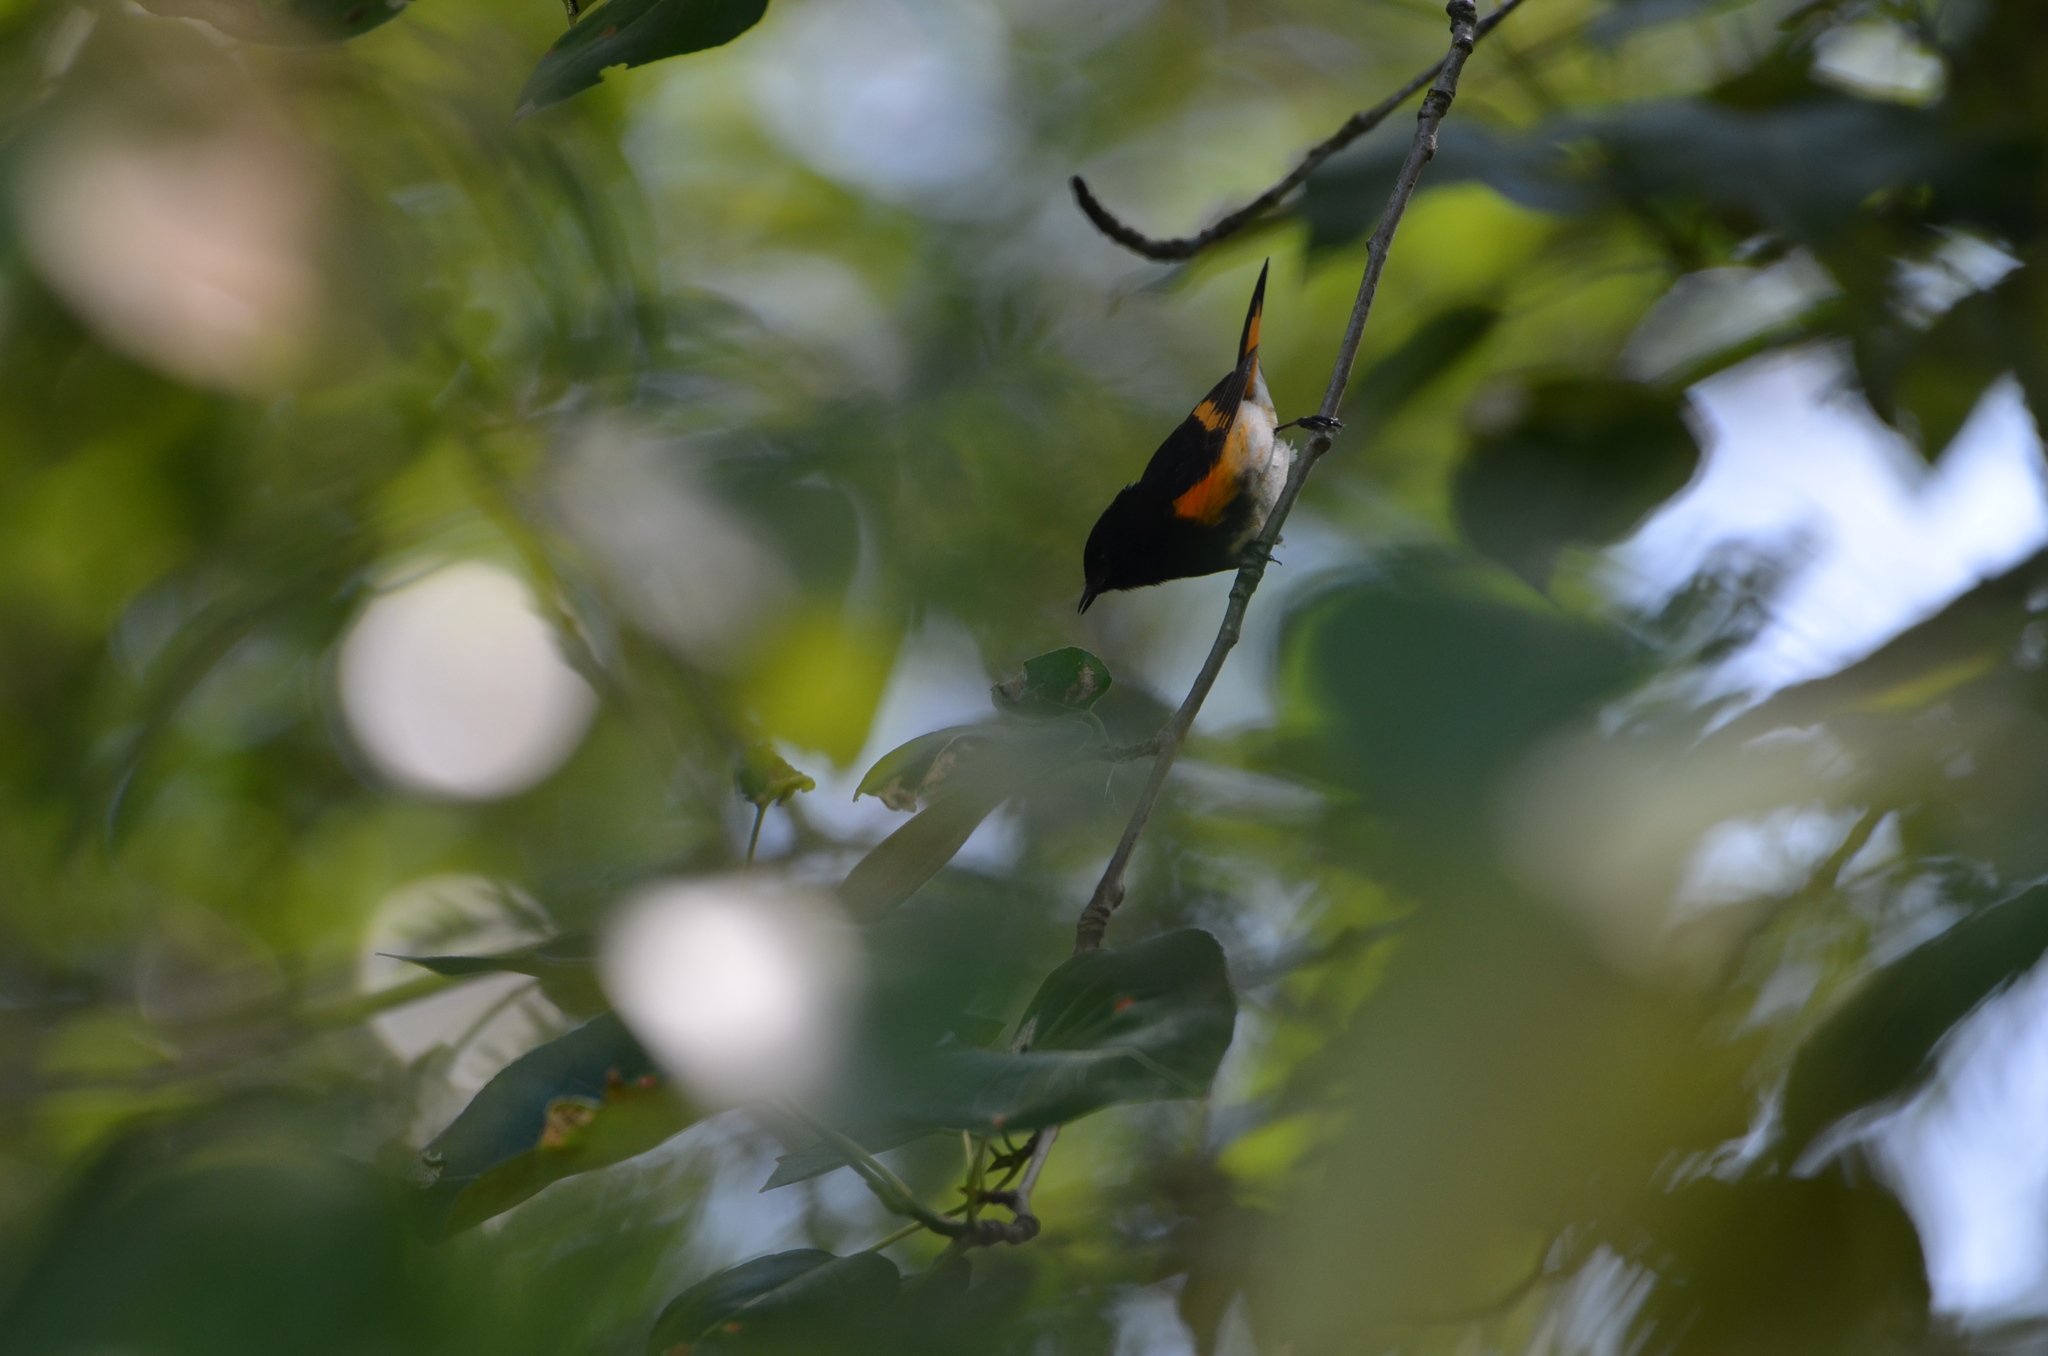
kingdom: Animalia
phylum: Chordata
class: Aves
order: Passeriformes
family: Parulidae
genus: Setophaga
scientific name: Setophaga ruticilla
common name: American redstart
